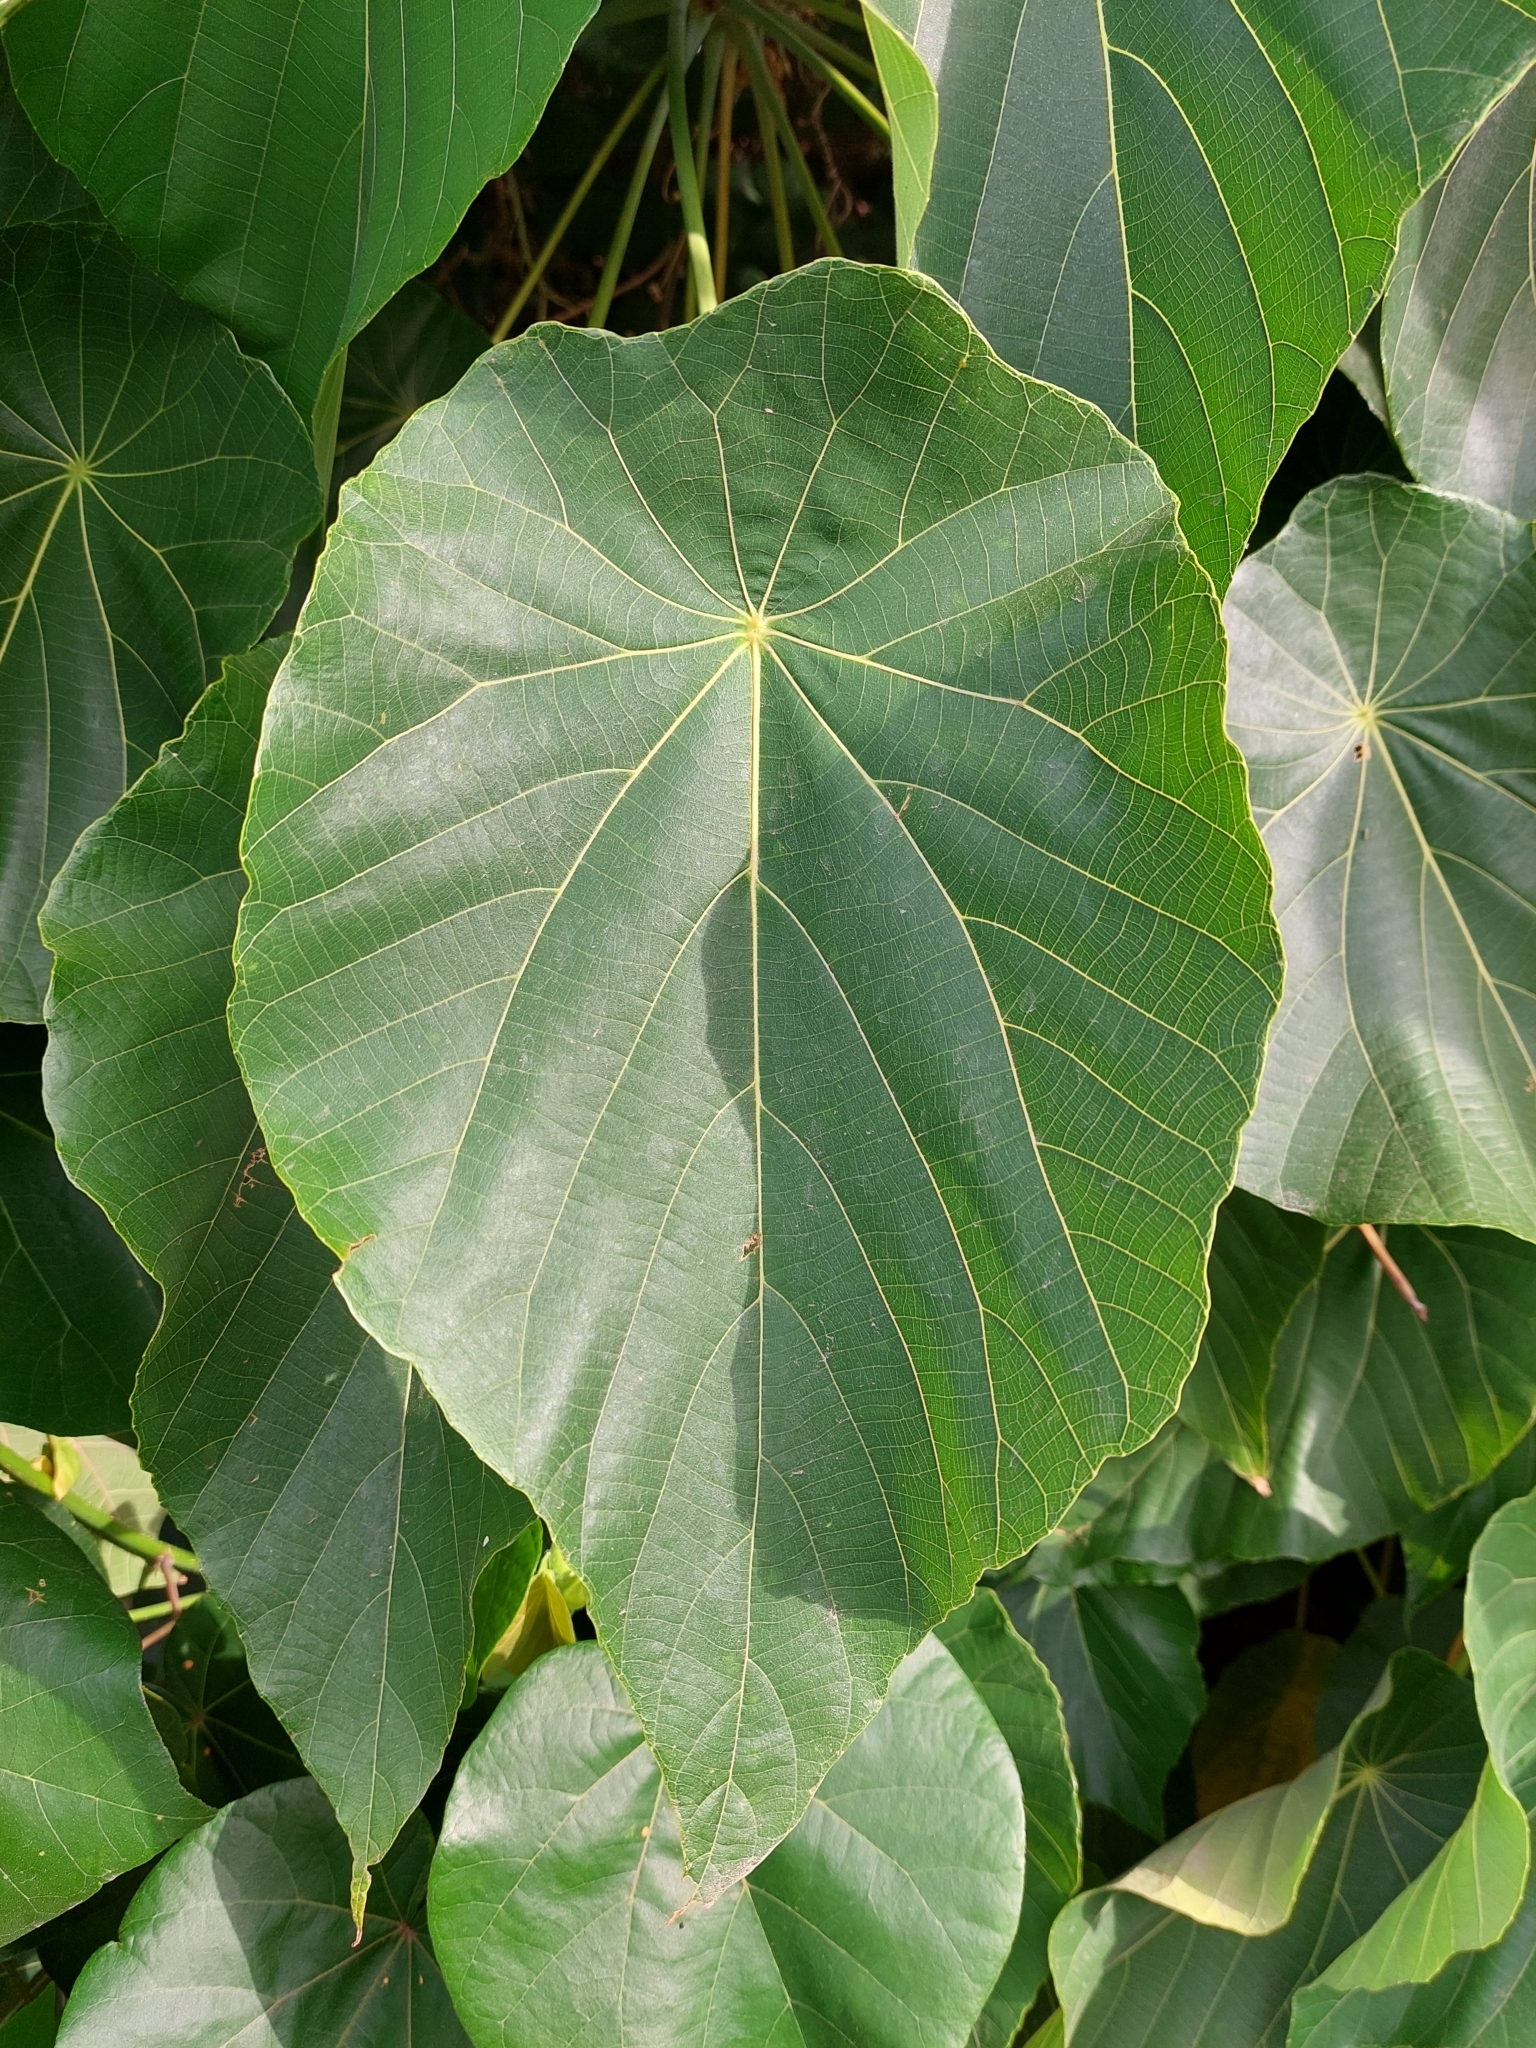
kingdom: Plantae
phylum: Tracheophyta
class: Magnoliopsida
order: Malpighiales
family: Euphorbiaceae
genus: Macaranga
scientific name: Macaranga tanarius
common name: Parasol leaf tree
